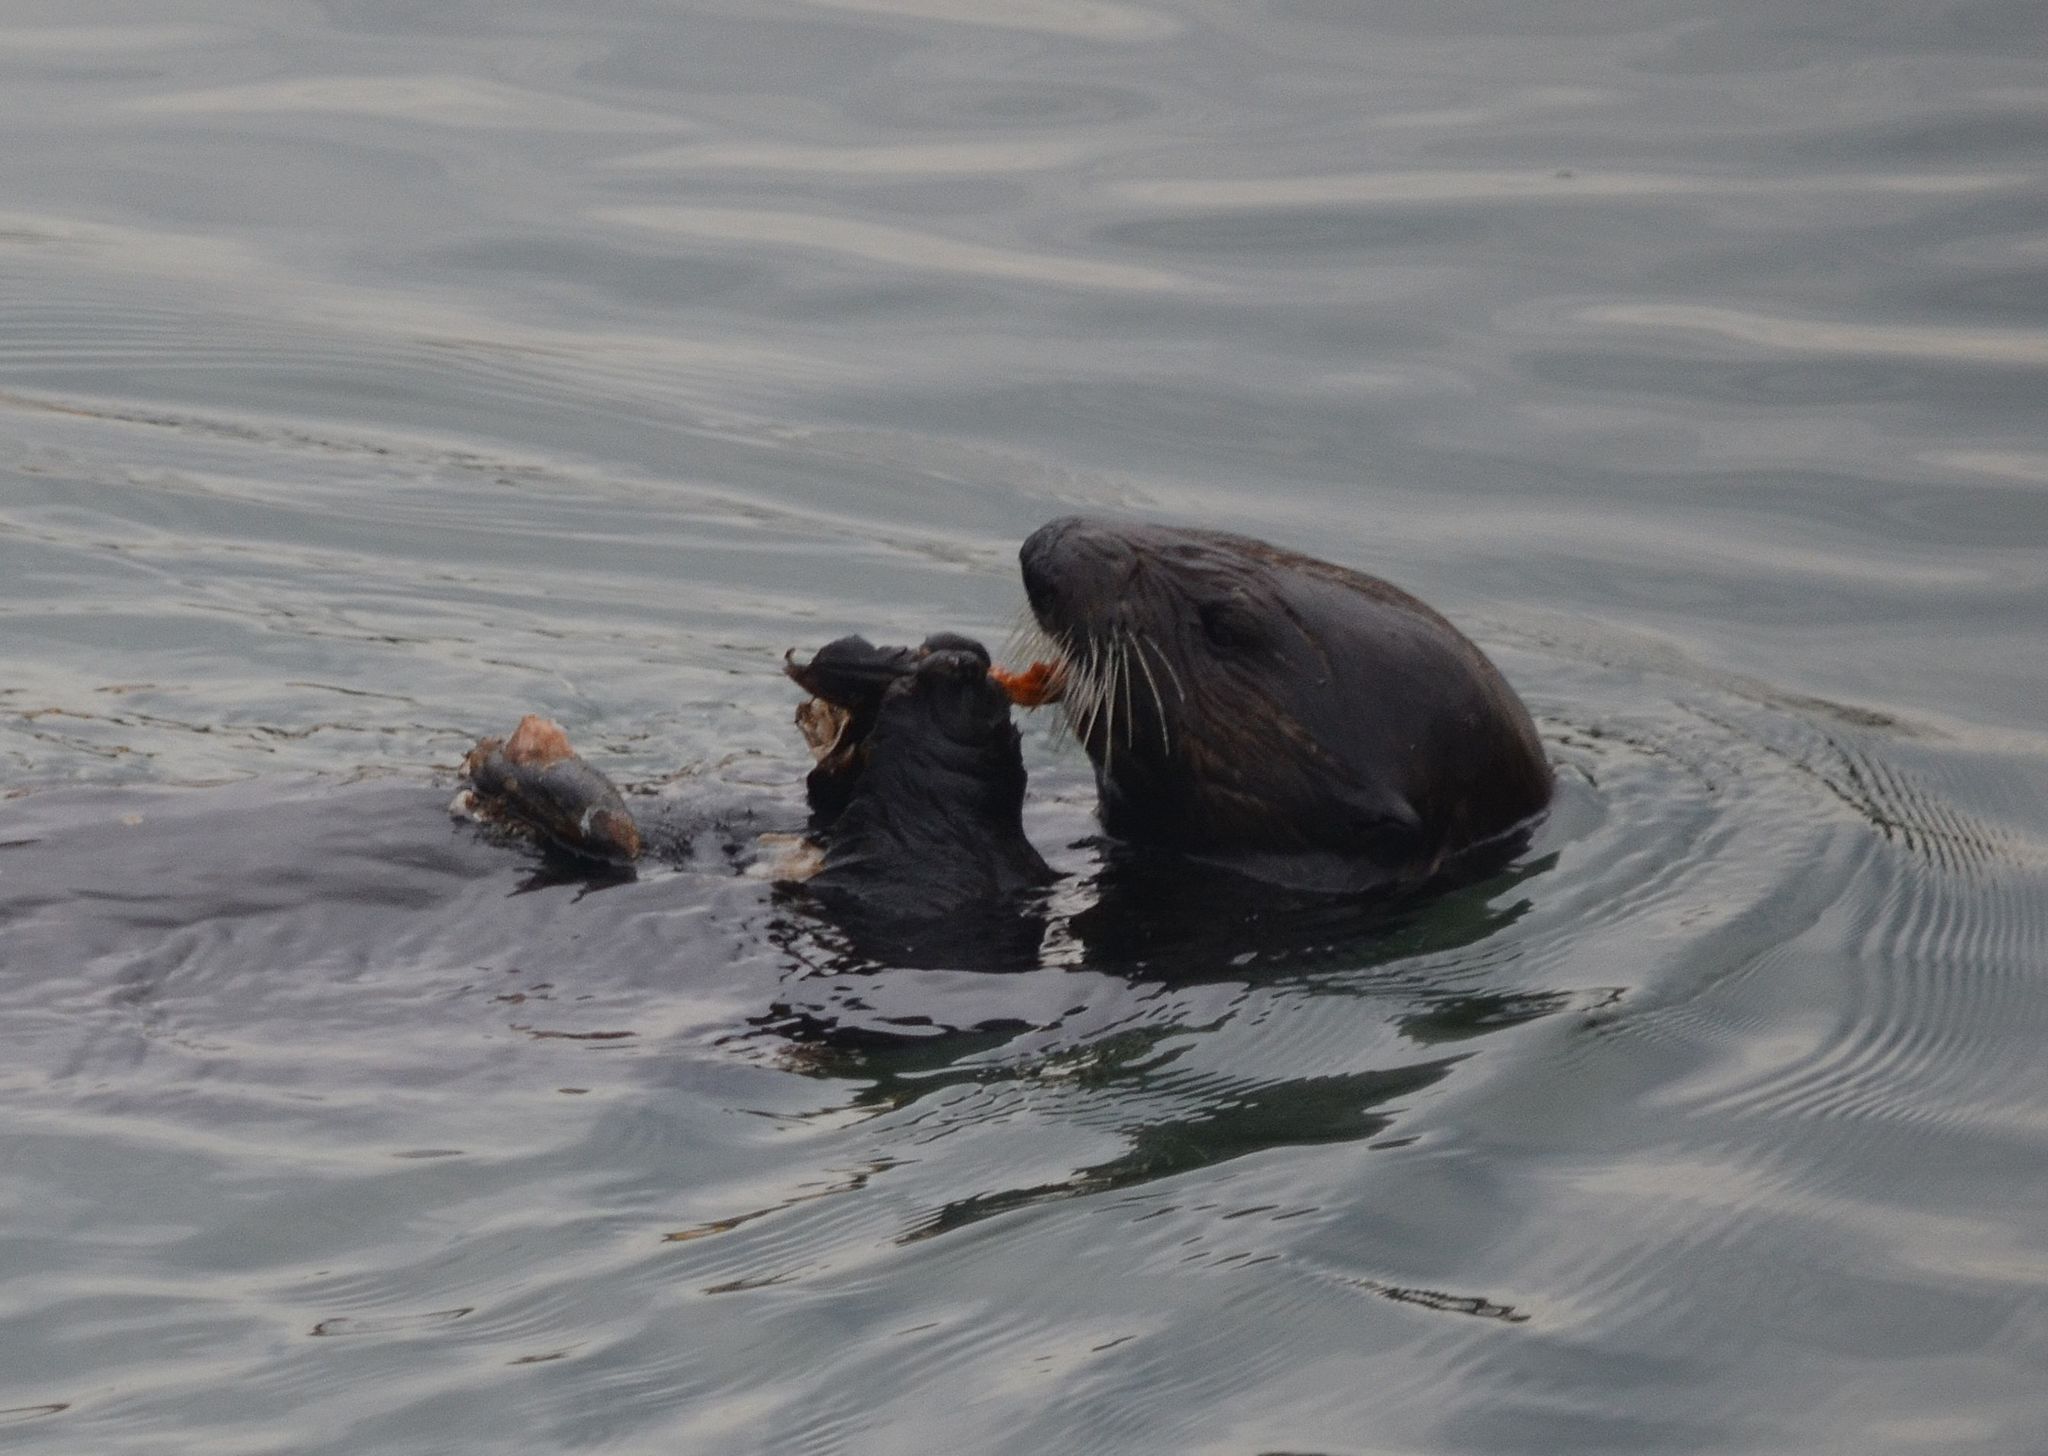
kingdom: Animalia
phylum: Chordata
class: Mammalia
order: Carnivora
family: Mustelidae
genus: Enhydra
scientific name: Enhydra lutris
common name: Sea otter
